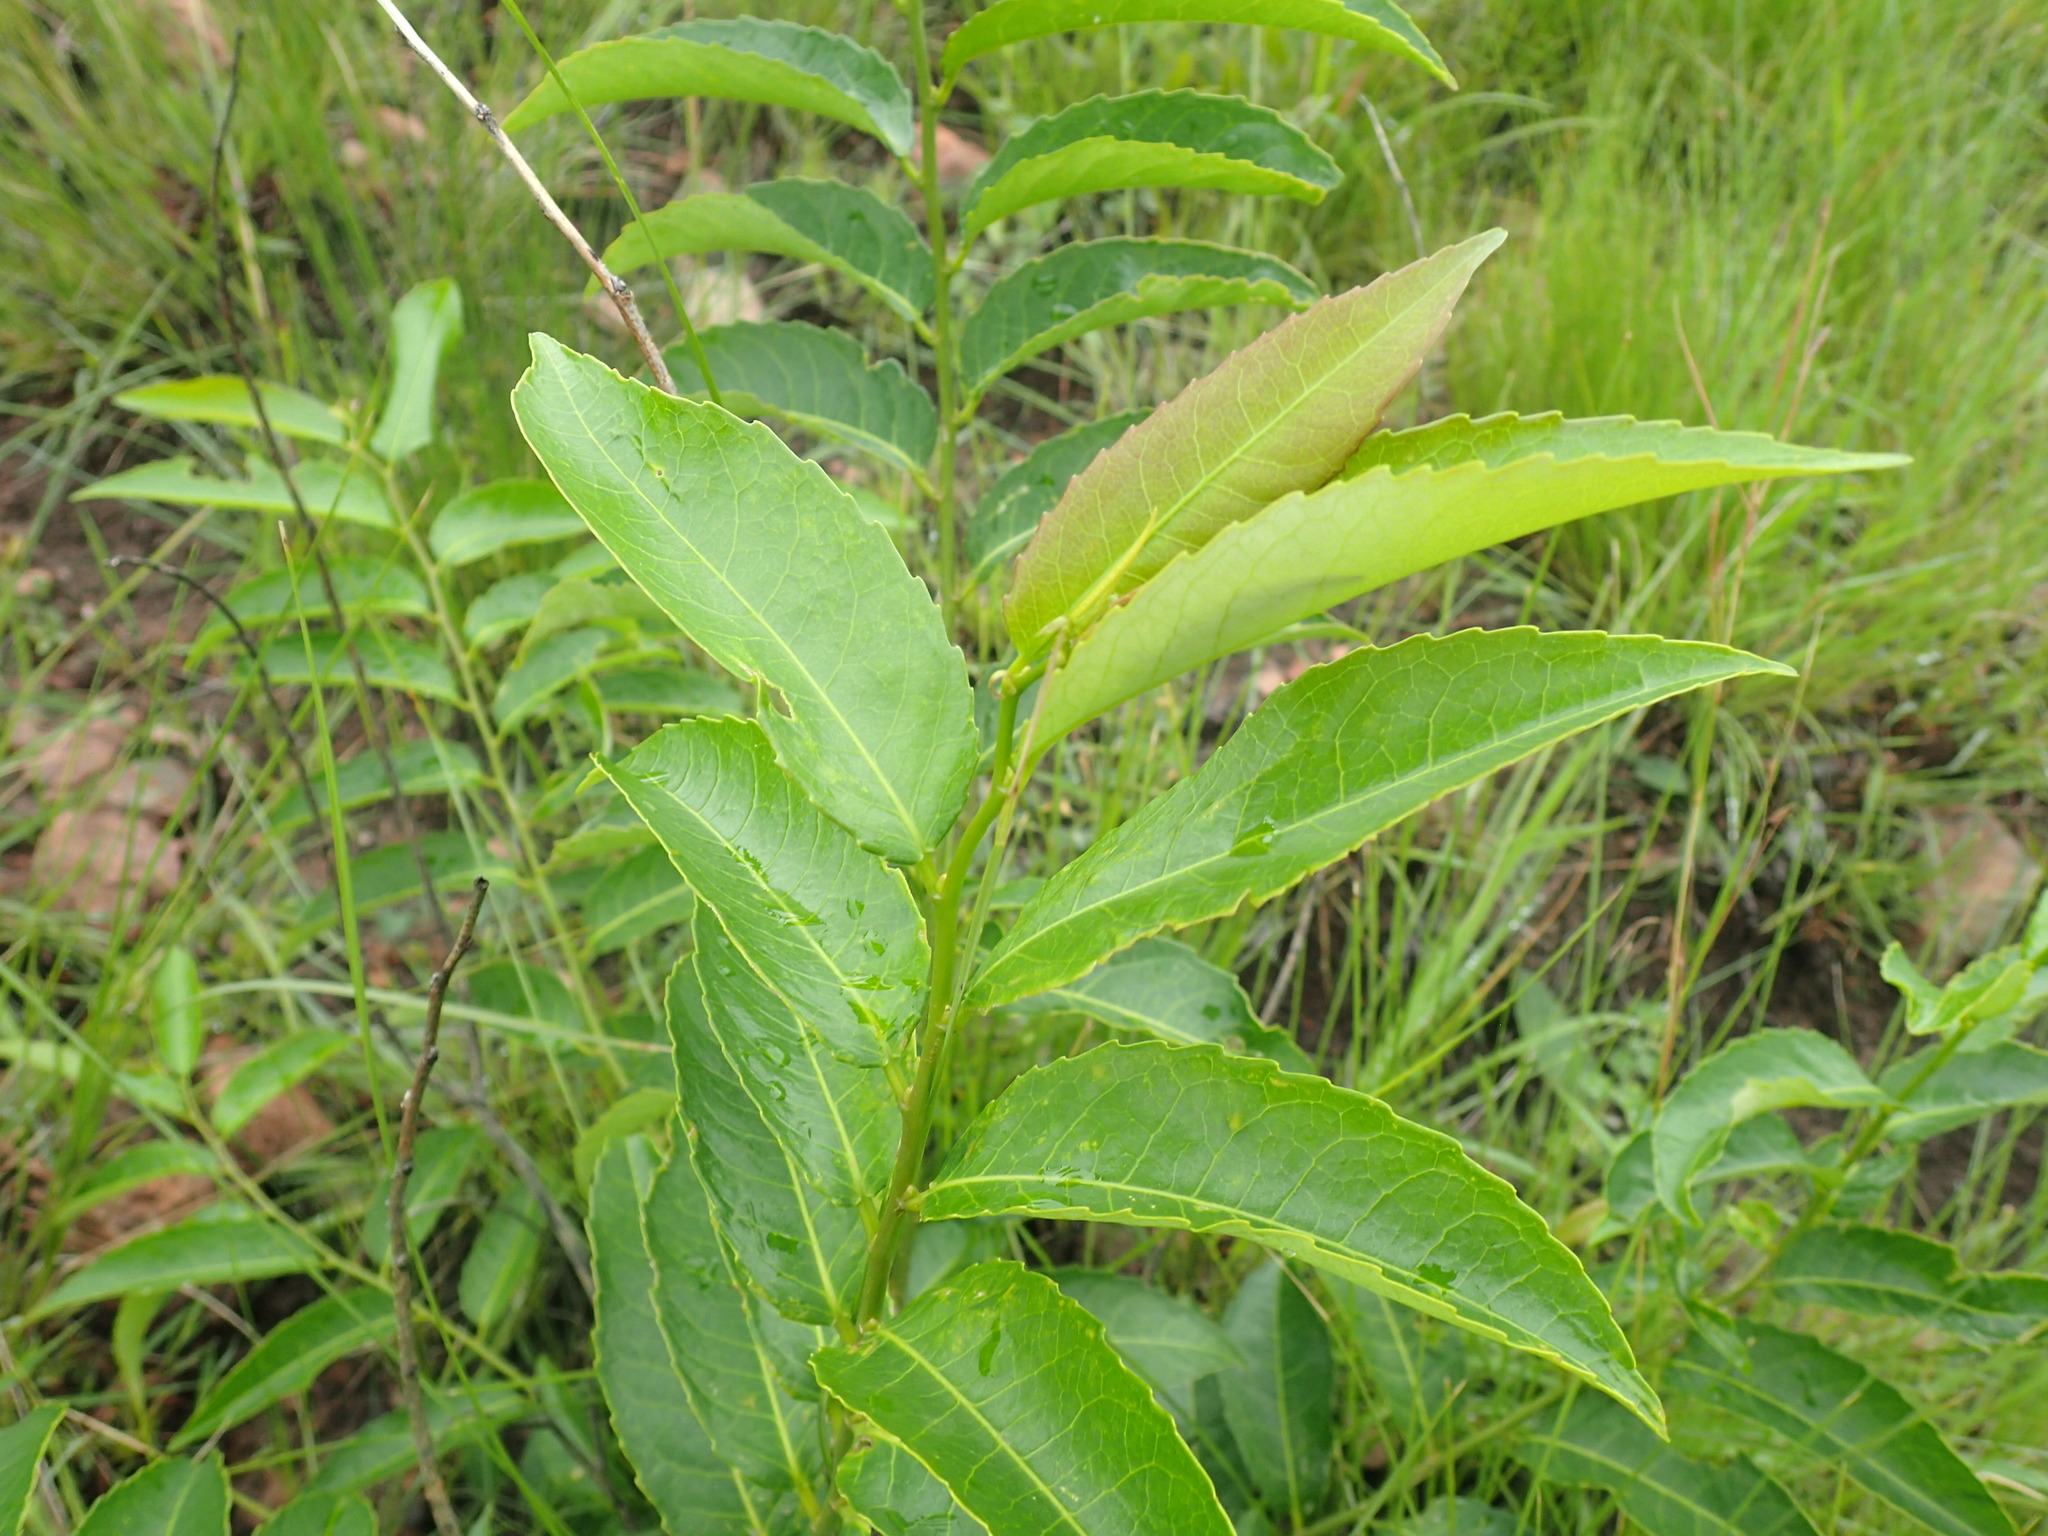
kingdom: Plantae
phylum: Tracheophyta
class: Magnoliopsida
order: Malpighiales
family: Euphorbiaceae
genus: Sclerocroton
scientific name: Sclerocroton integerrimus
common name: Duiker berry
